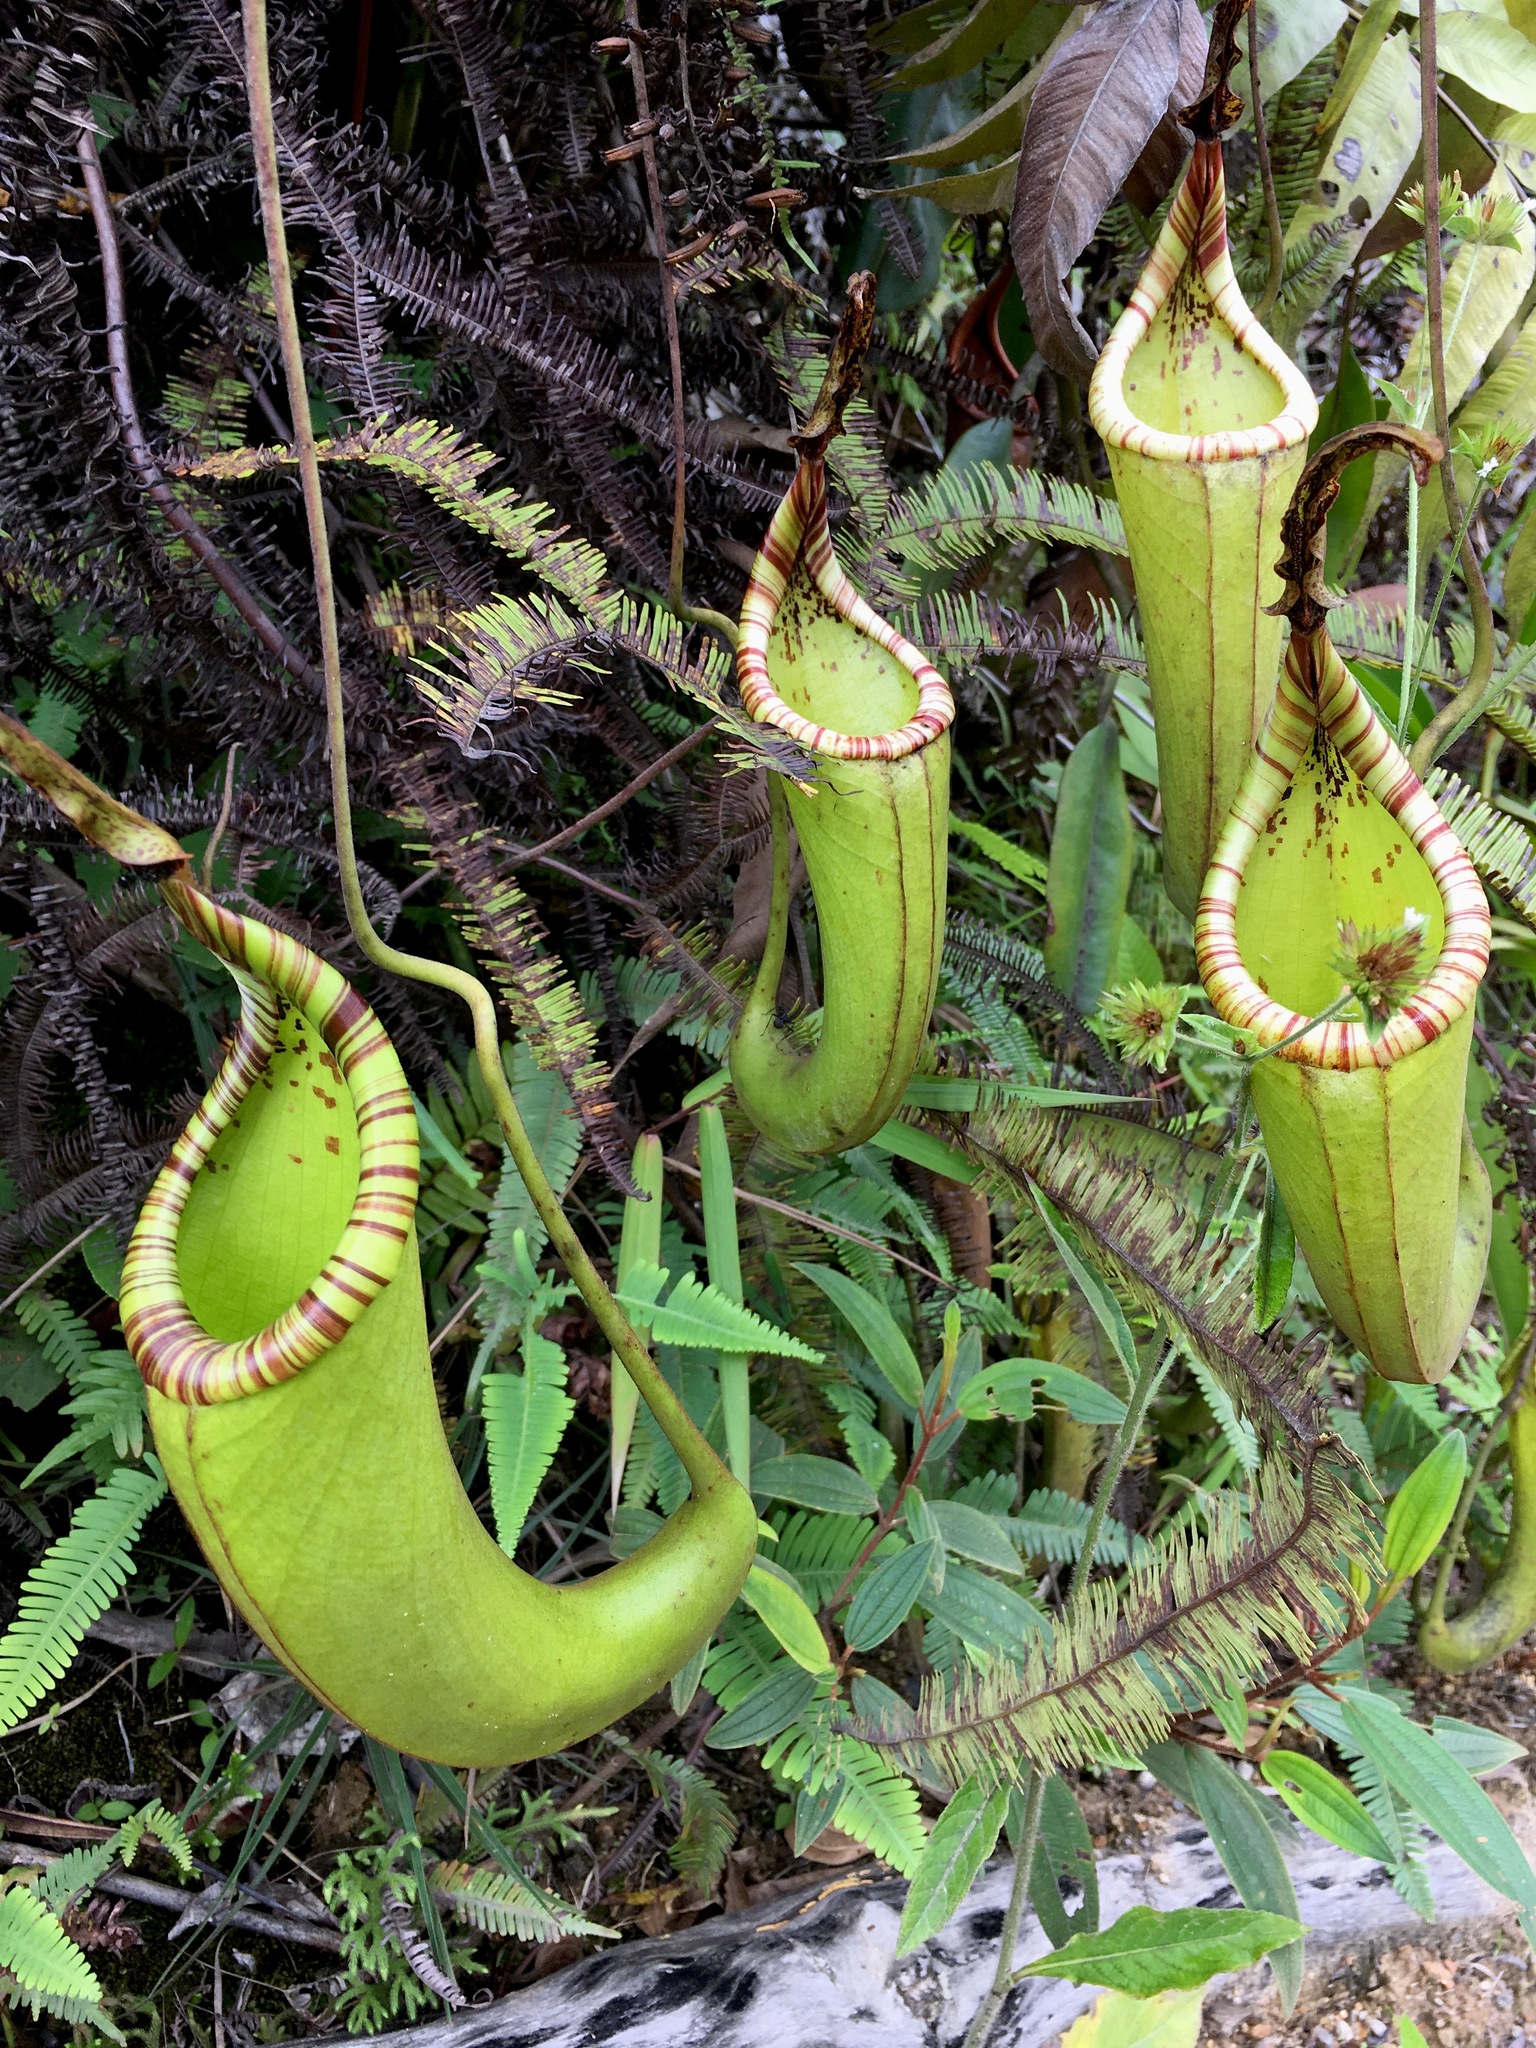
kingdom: Plantae
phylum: Tracheophyta
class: Magnoliopsida
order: Caryophyllales
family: Nepenthaceae
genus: Nepenthes
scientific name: Nepenthes dactylifera
